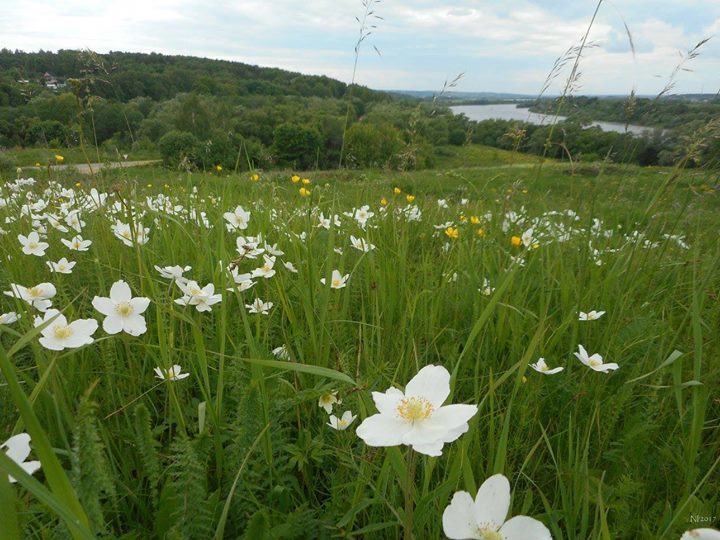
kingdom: Plantae
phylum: Tracheophyta
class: Magnoliopsida
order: Ranunculales
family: Ranunculaceae
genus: Anemone
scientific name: Anemone sylvestris
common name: Snowdrop anemone
